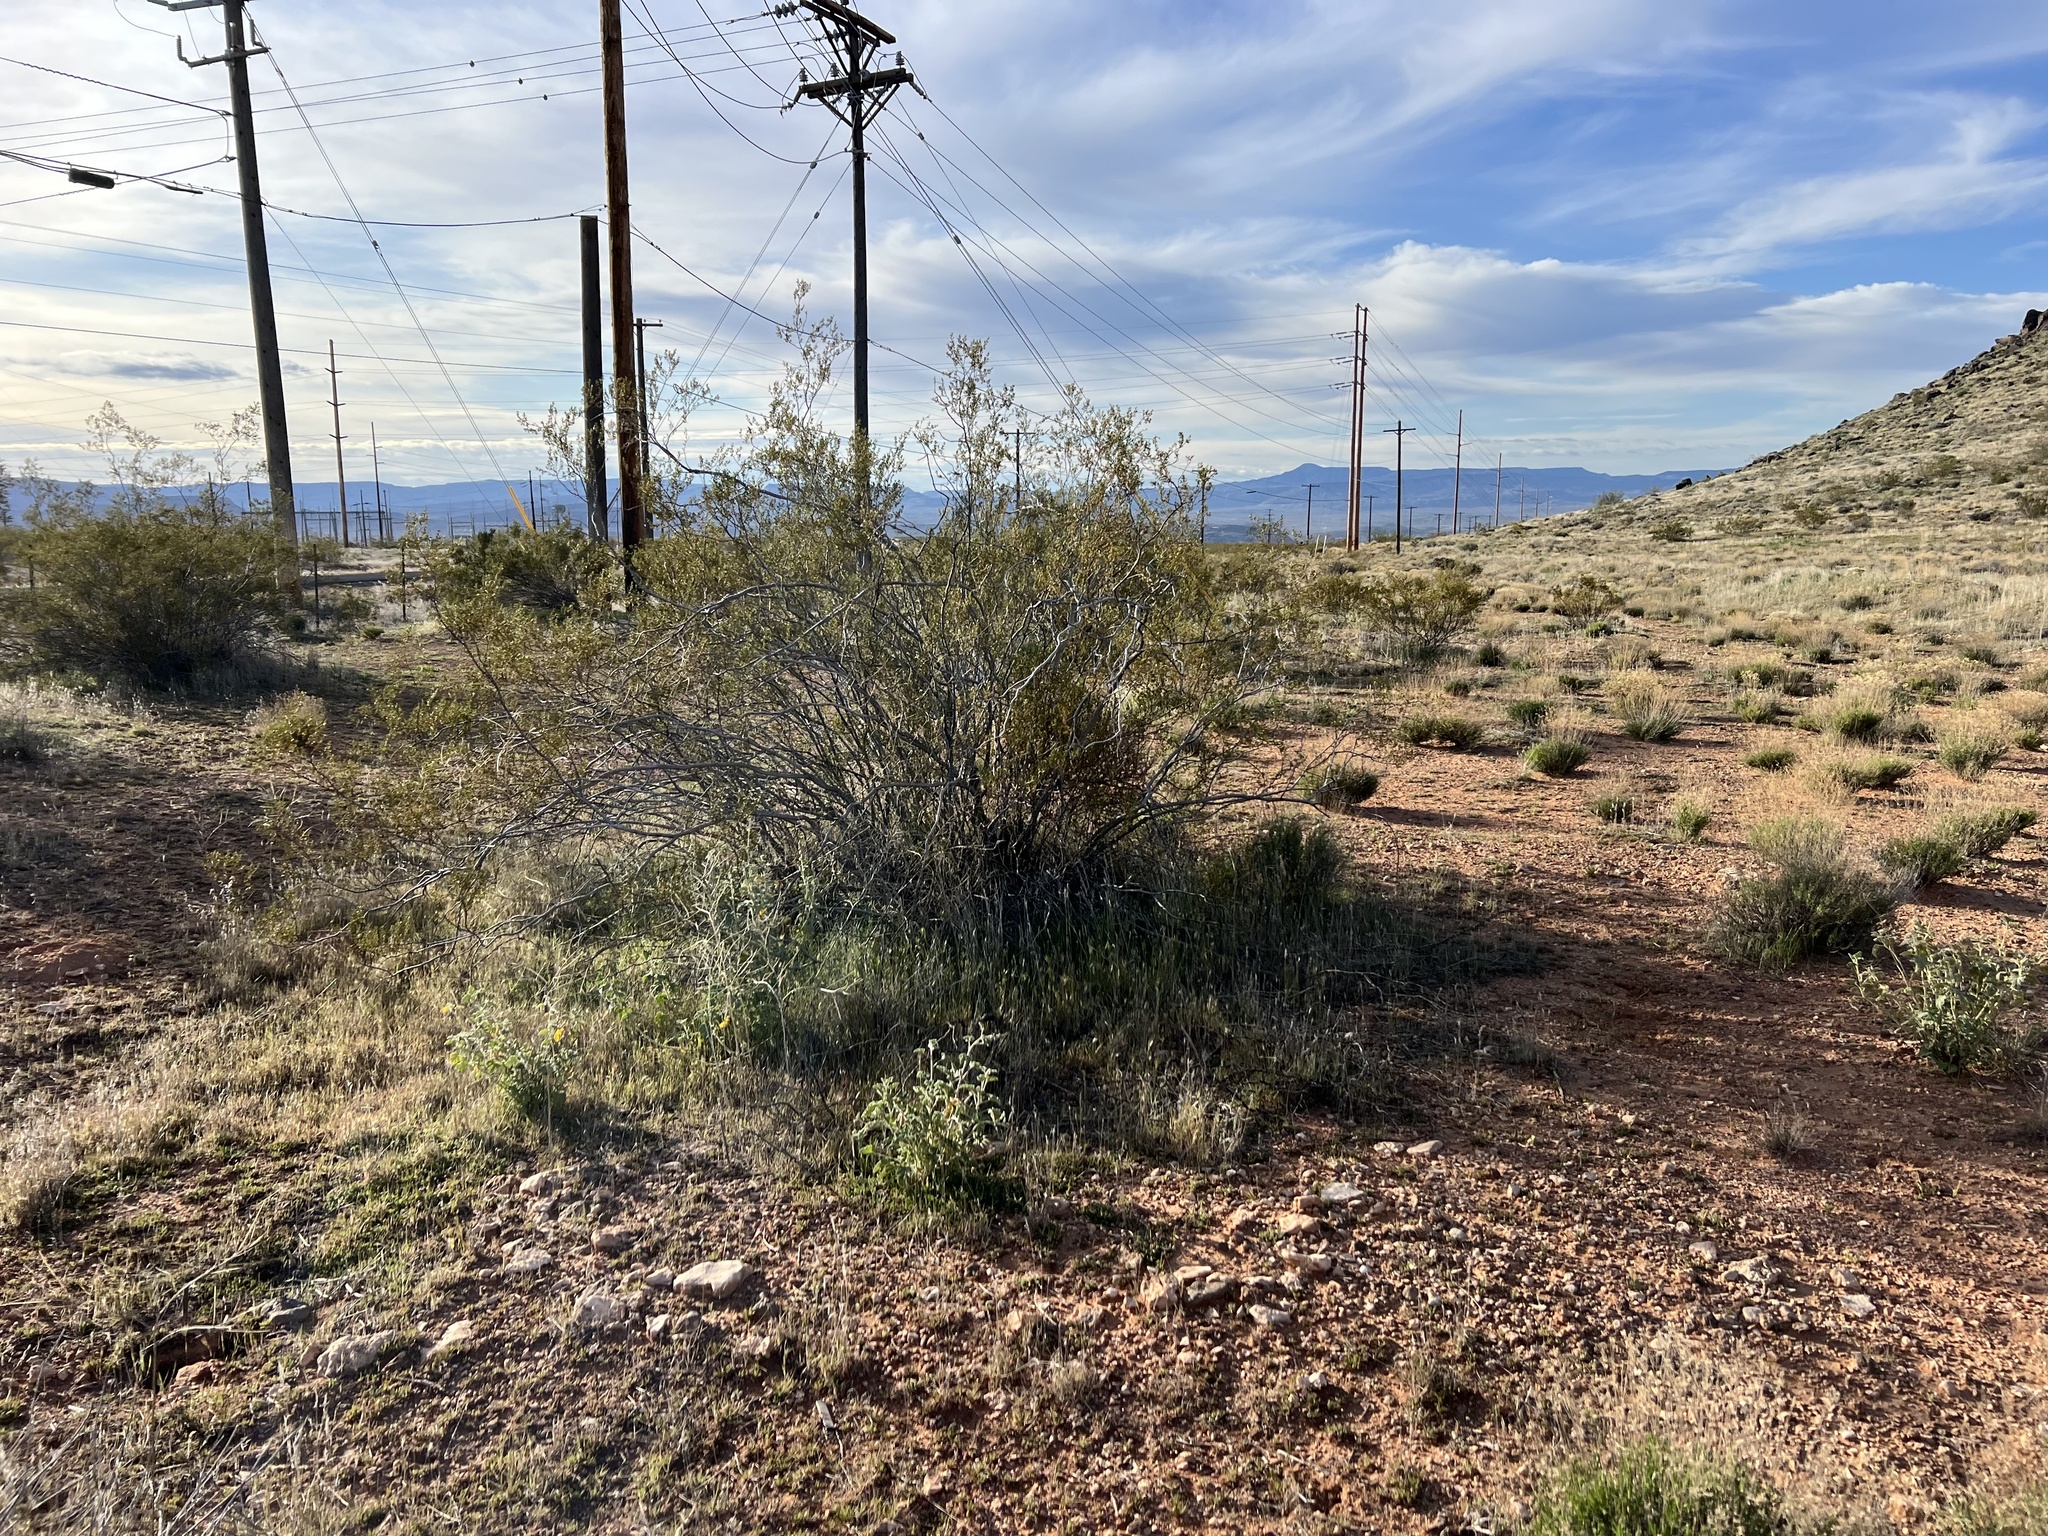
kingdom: Plantae
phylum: Tracheophyta
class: Magnoliopsida
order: Zygophyllales
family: Zygophyllaceae
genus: Larrea
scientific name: Larrea tridentata
